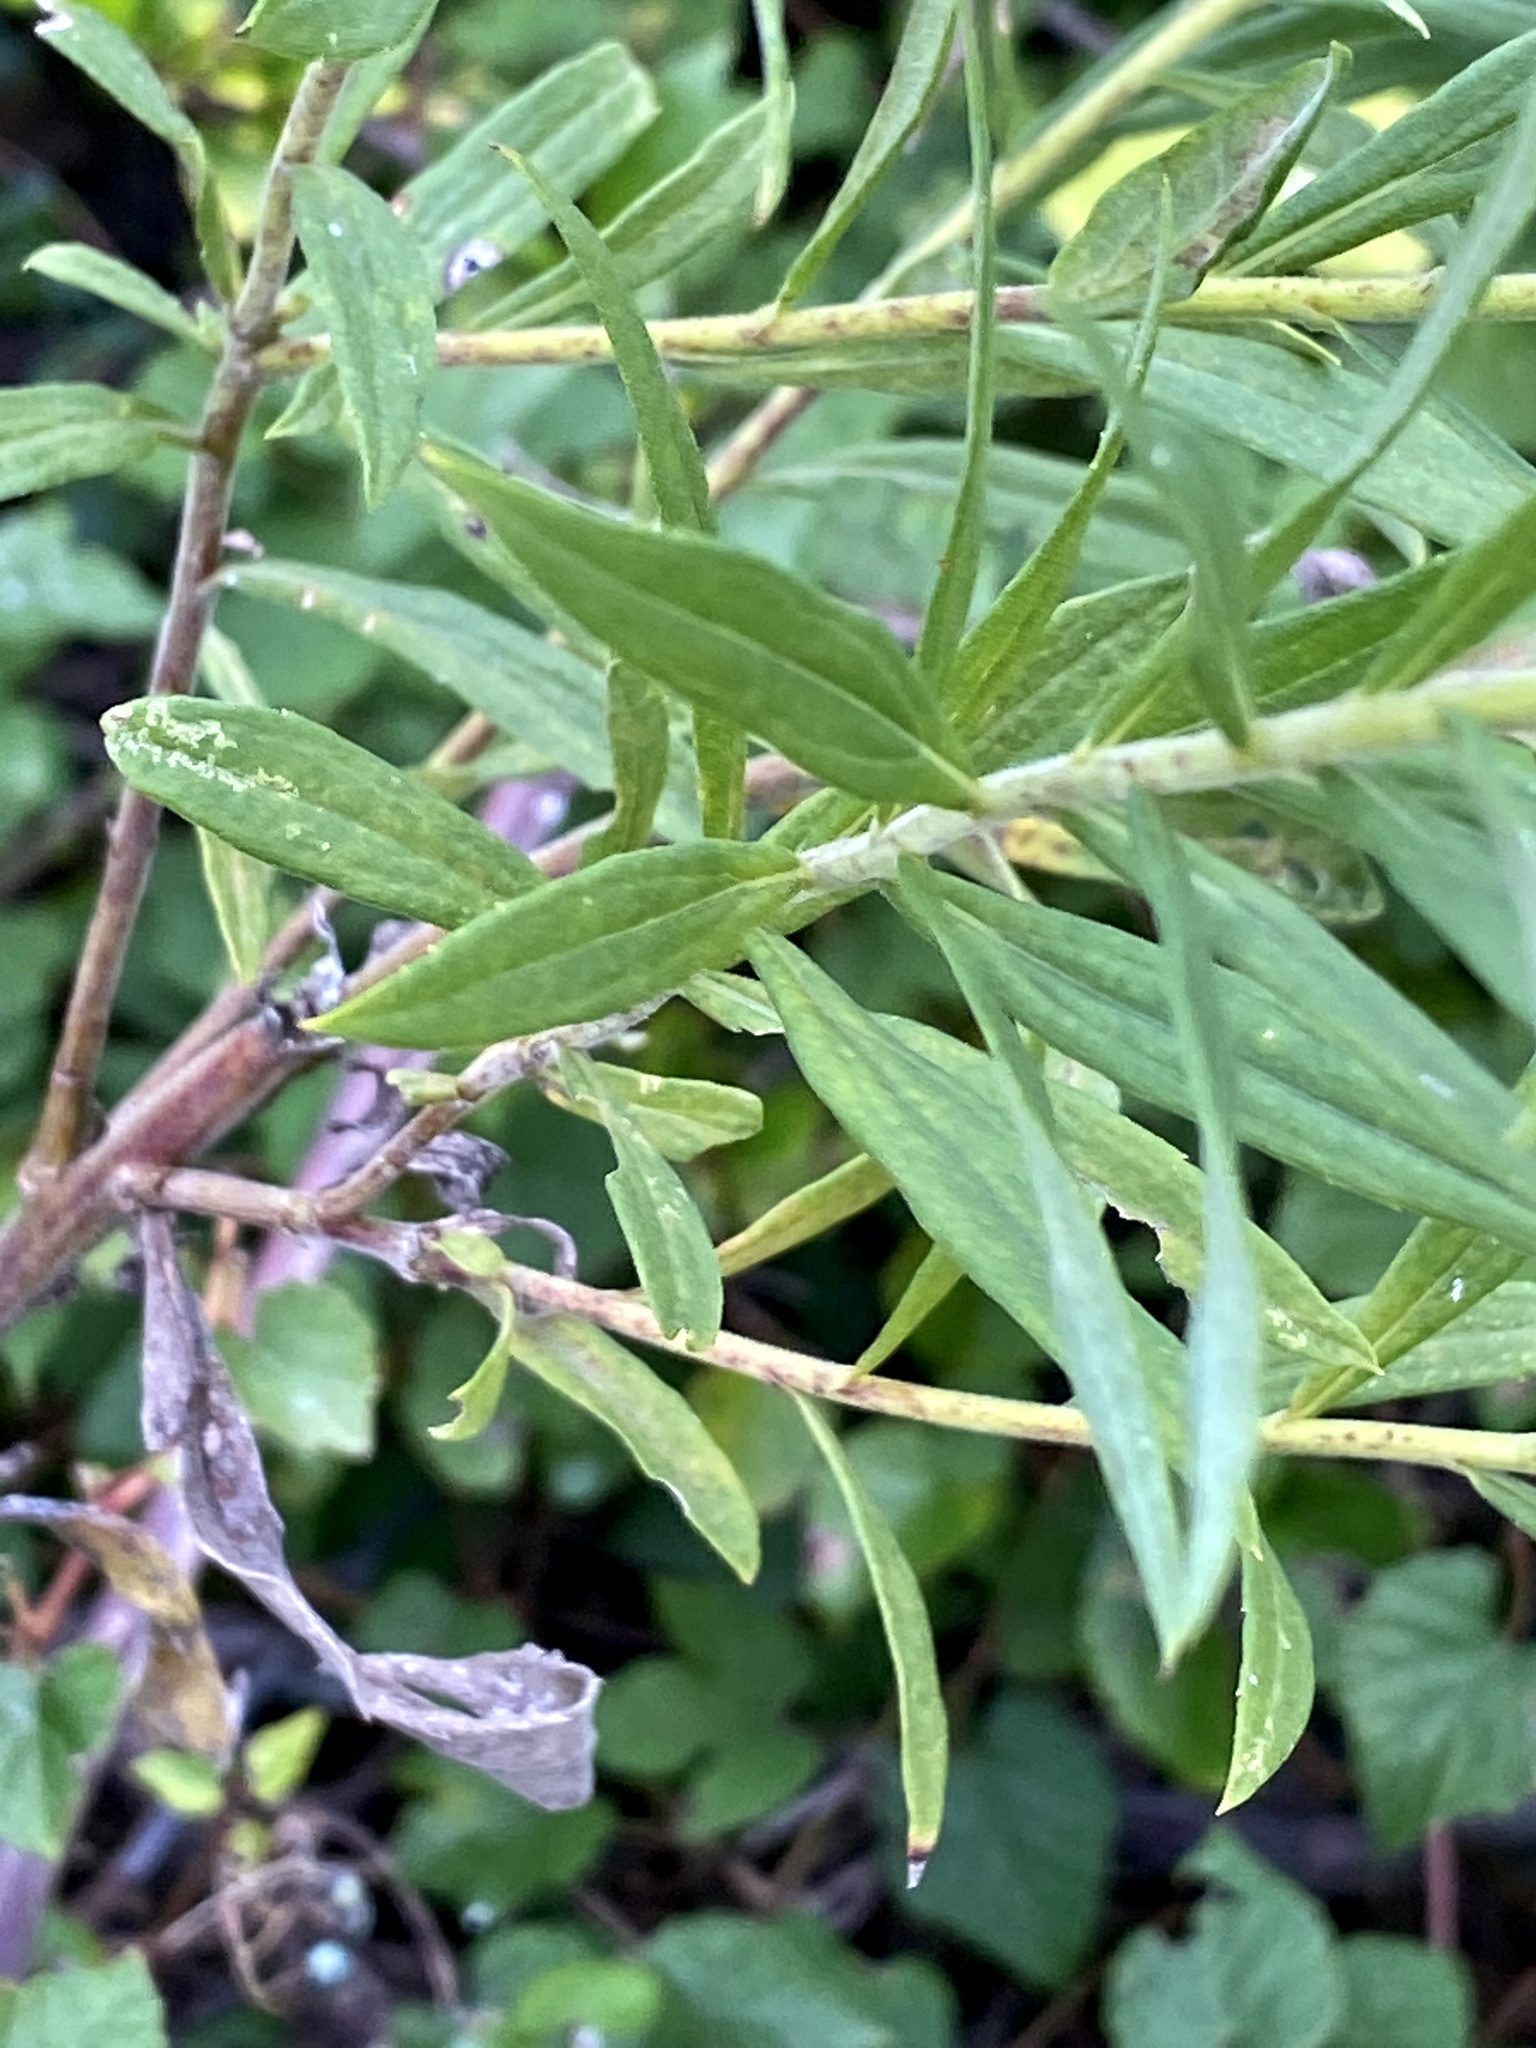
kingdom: Plantae
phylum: Tracheophyta
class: Magnoliopsida
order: Asterales
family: Asteraceae
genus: Solidago
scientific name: Solidago altissima
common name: Late goldenrod
